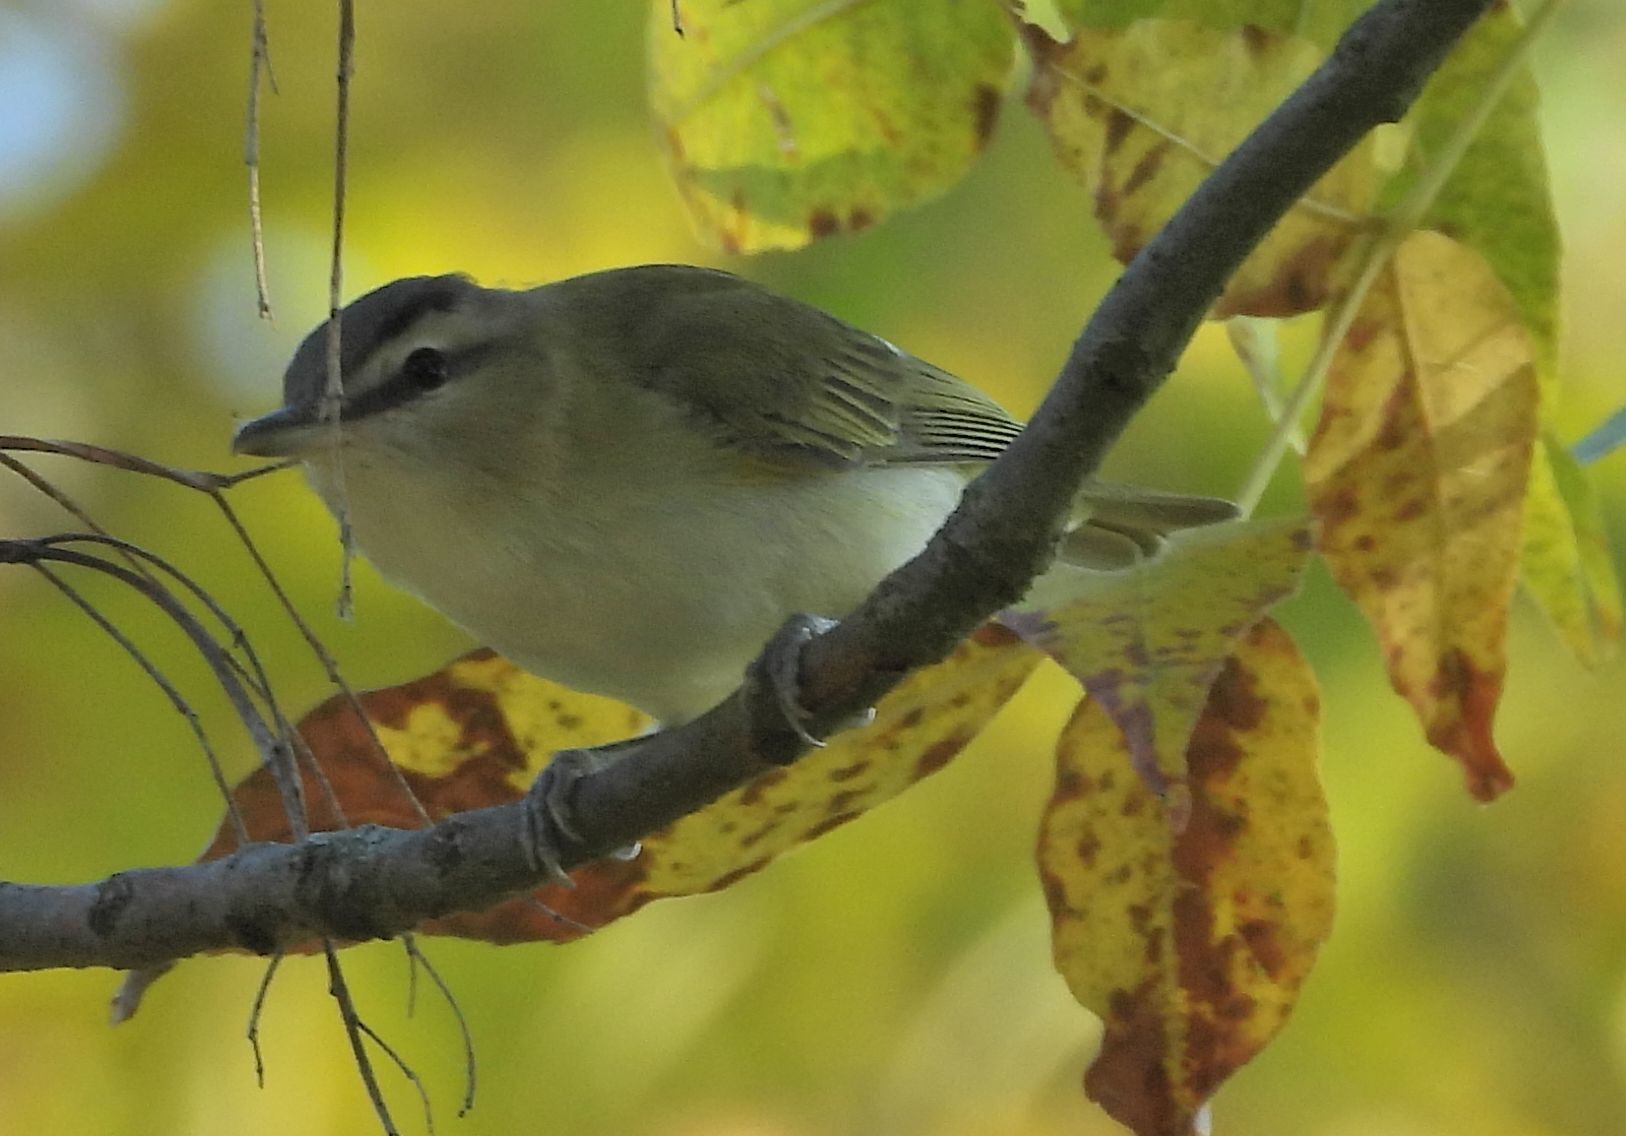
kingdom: Animalia
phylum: Chordata
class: Aves
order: Passeriformes
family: Vireonidae
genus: Vireo
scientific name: Vireo olivaceus
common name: Red-eyed vireo
